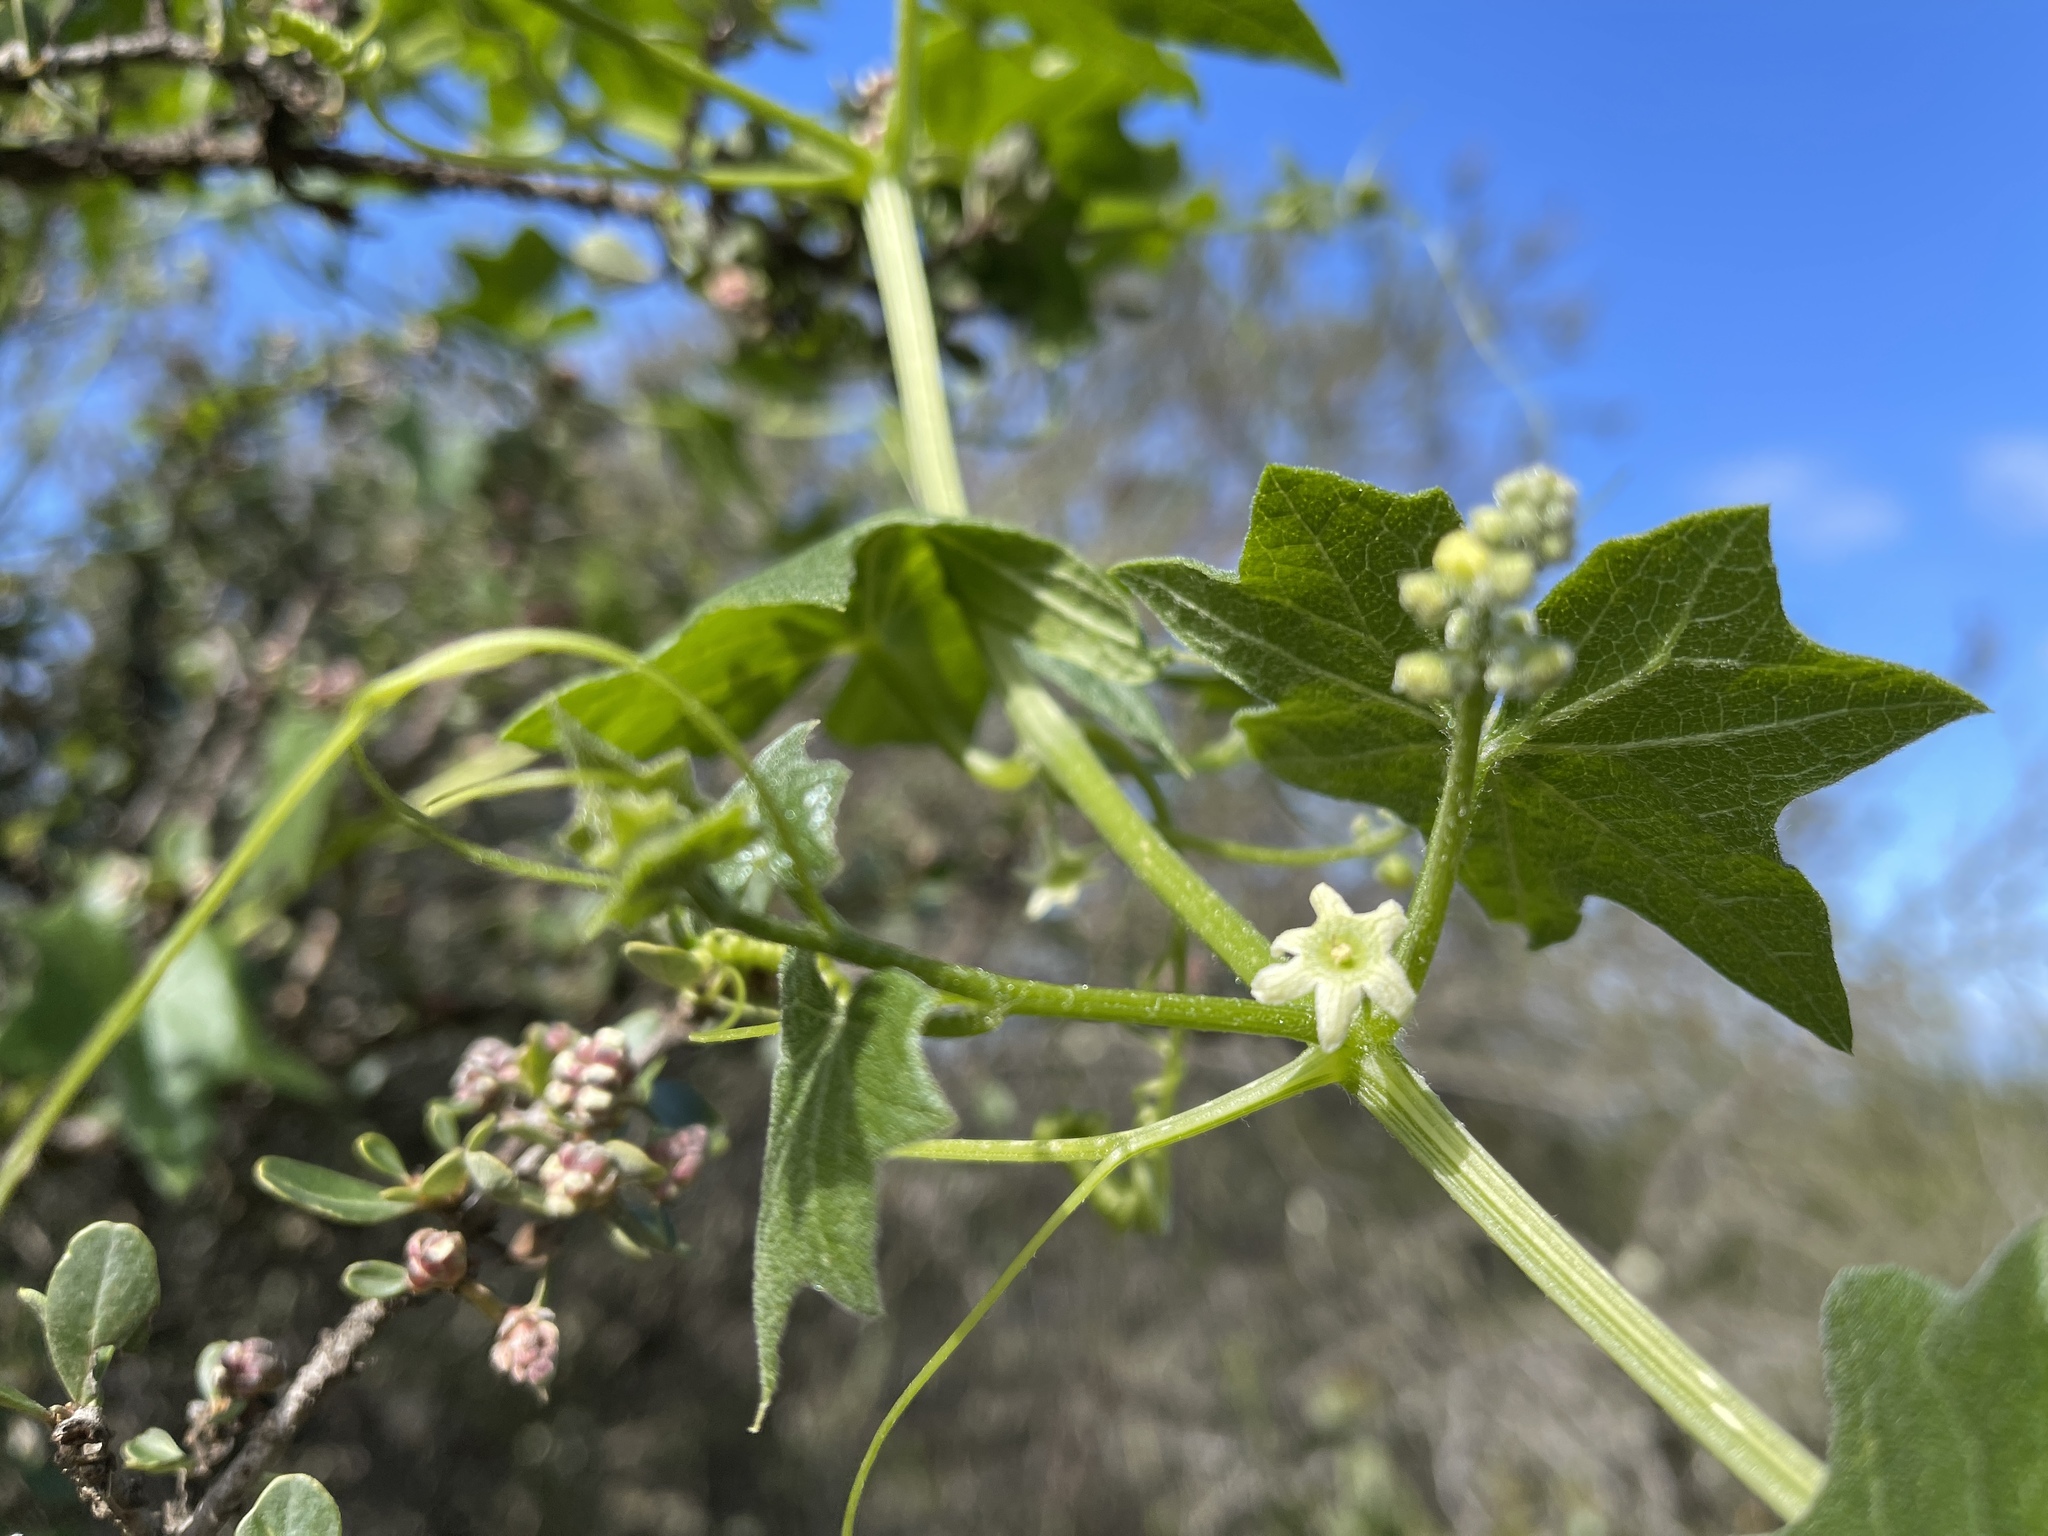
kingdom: Plantae
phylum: Tracheophyta
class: Magnoliopsida
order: Cucurbitales
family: Cucurbitaceae
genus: Marah
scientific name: Marah fabacea
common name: California manroot
